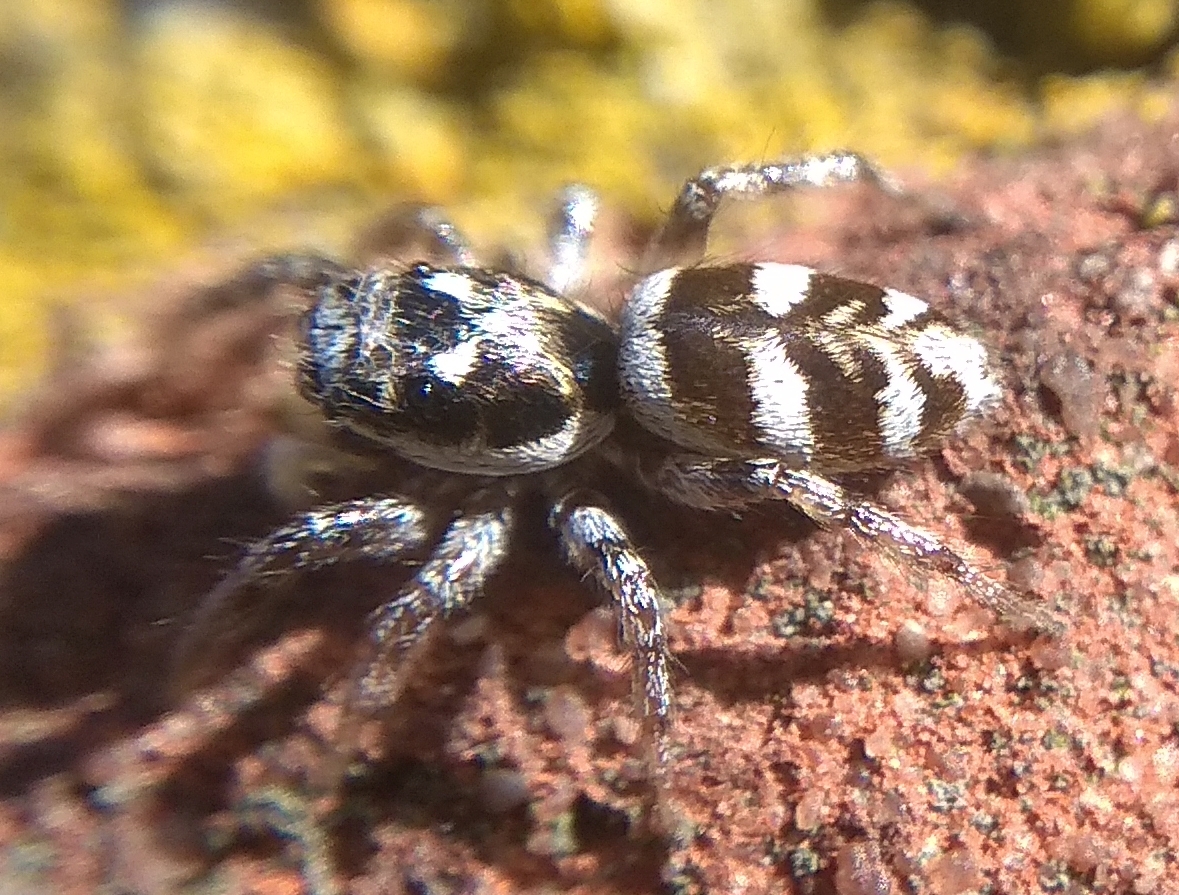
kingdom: Animalia
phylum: Arthropoda
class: Arachnida
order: Araneae
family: Salticidae
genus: Salticus
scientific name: Salticus scenicus
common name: Zebra jumper
